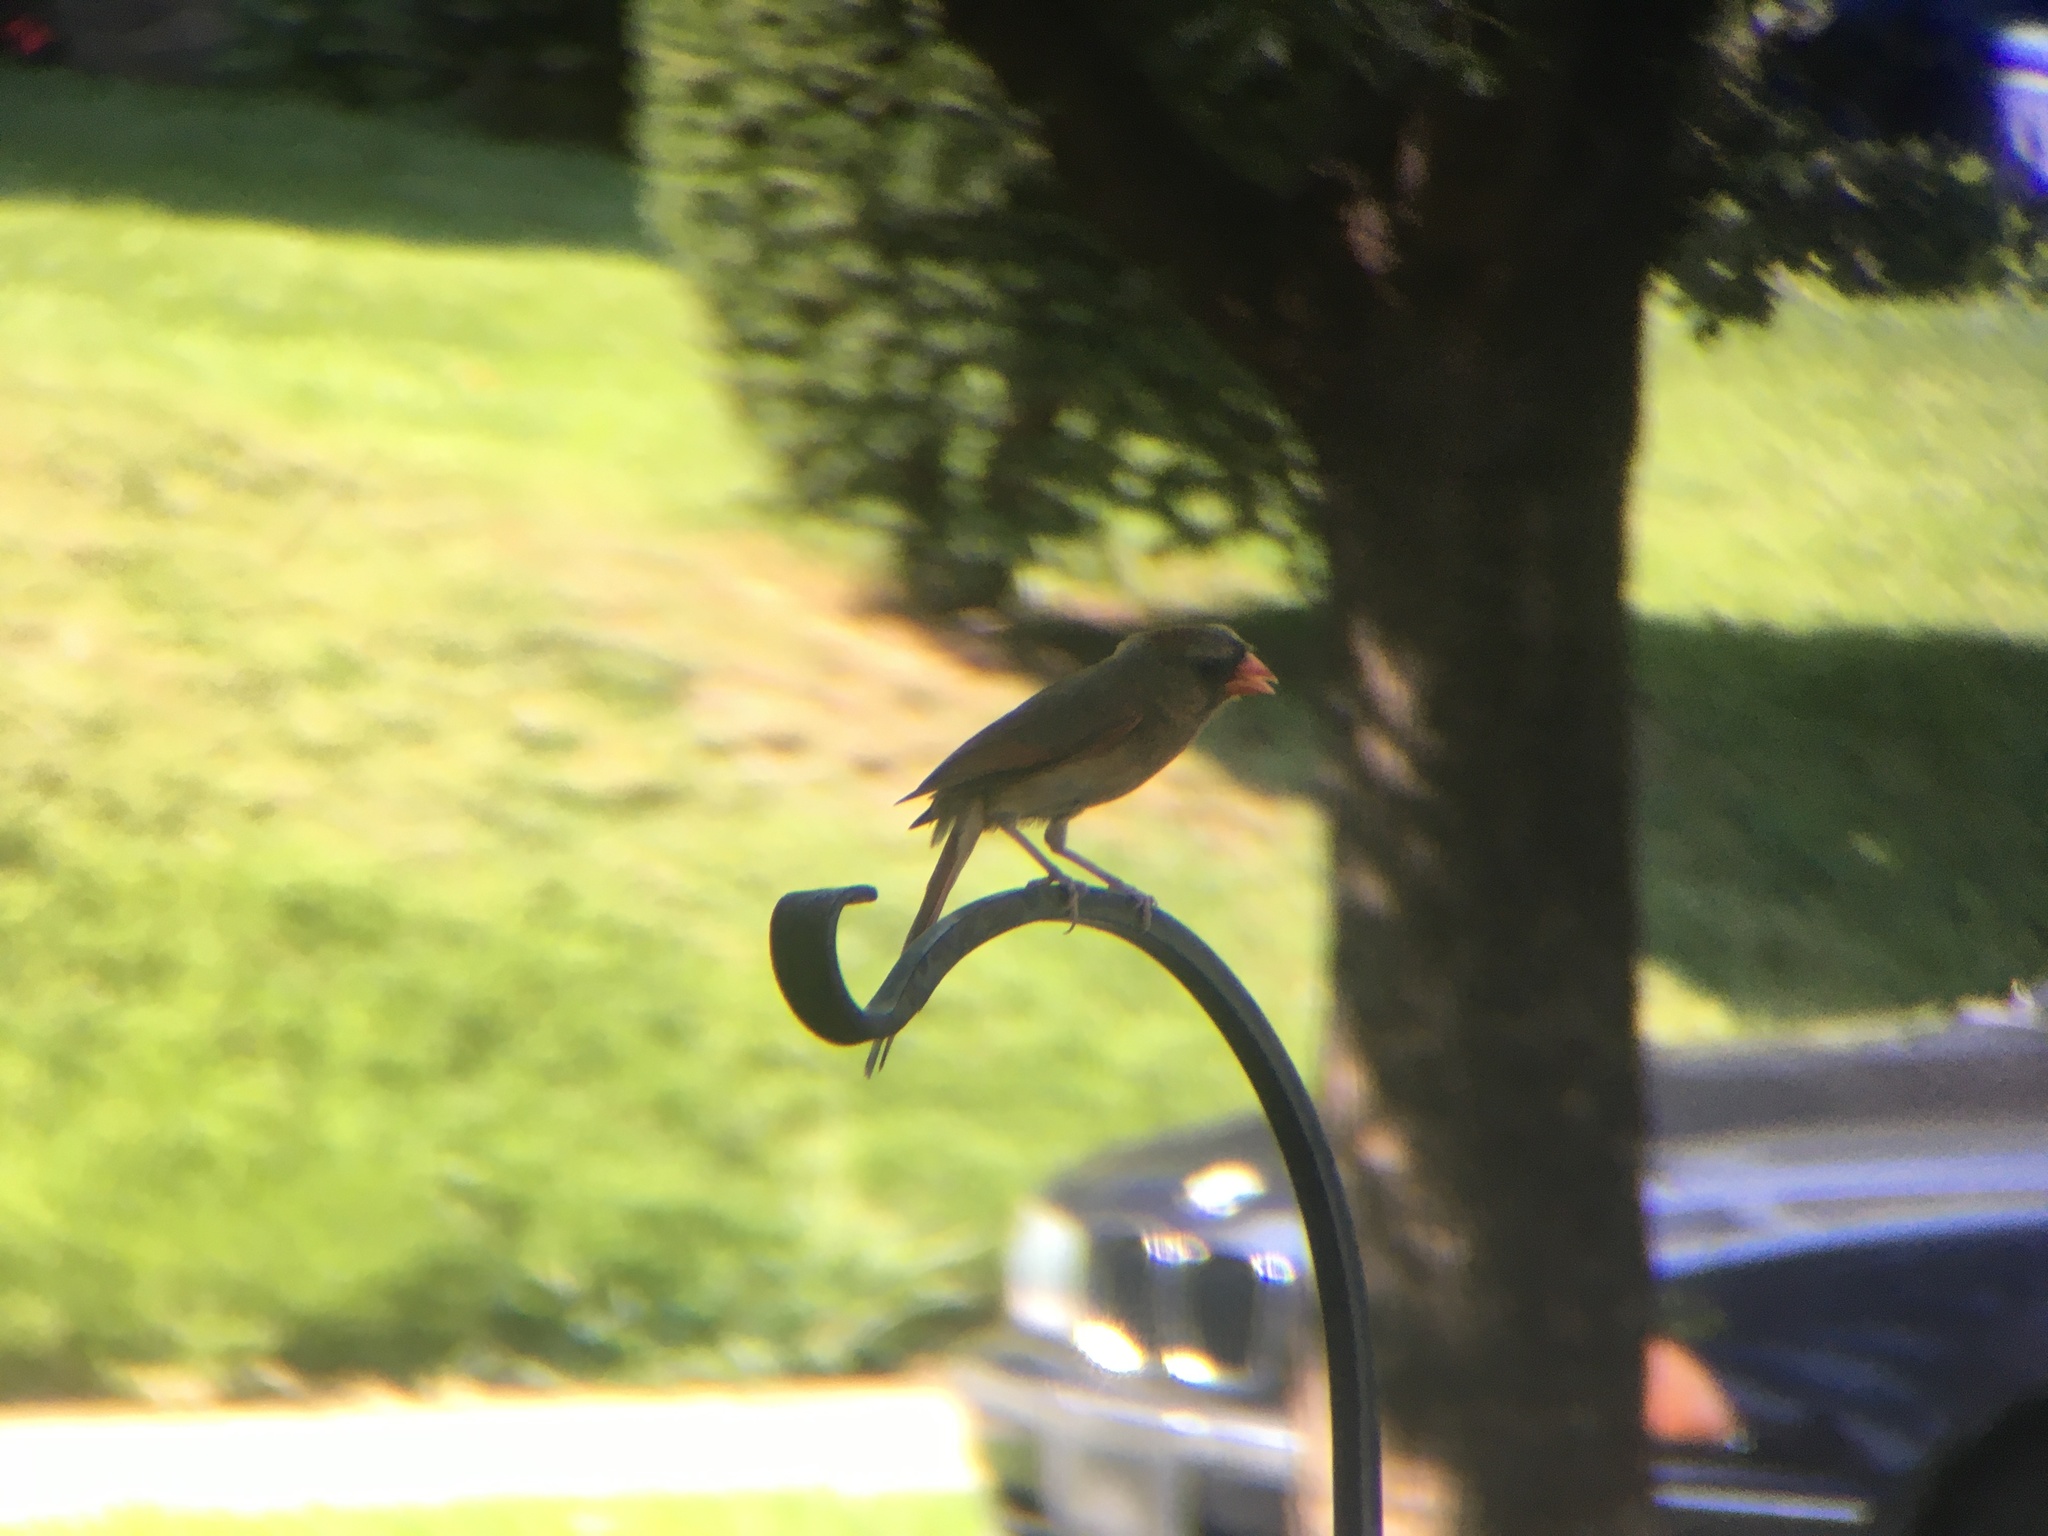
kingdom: Animalia
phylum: Chordata
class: Aves
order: Passeriformes
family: Cardinalidae
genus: Cardinalis
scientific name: Cardinalis cardinalis
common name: Northern cardinal
